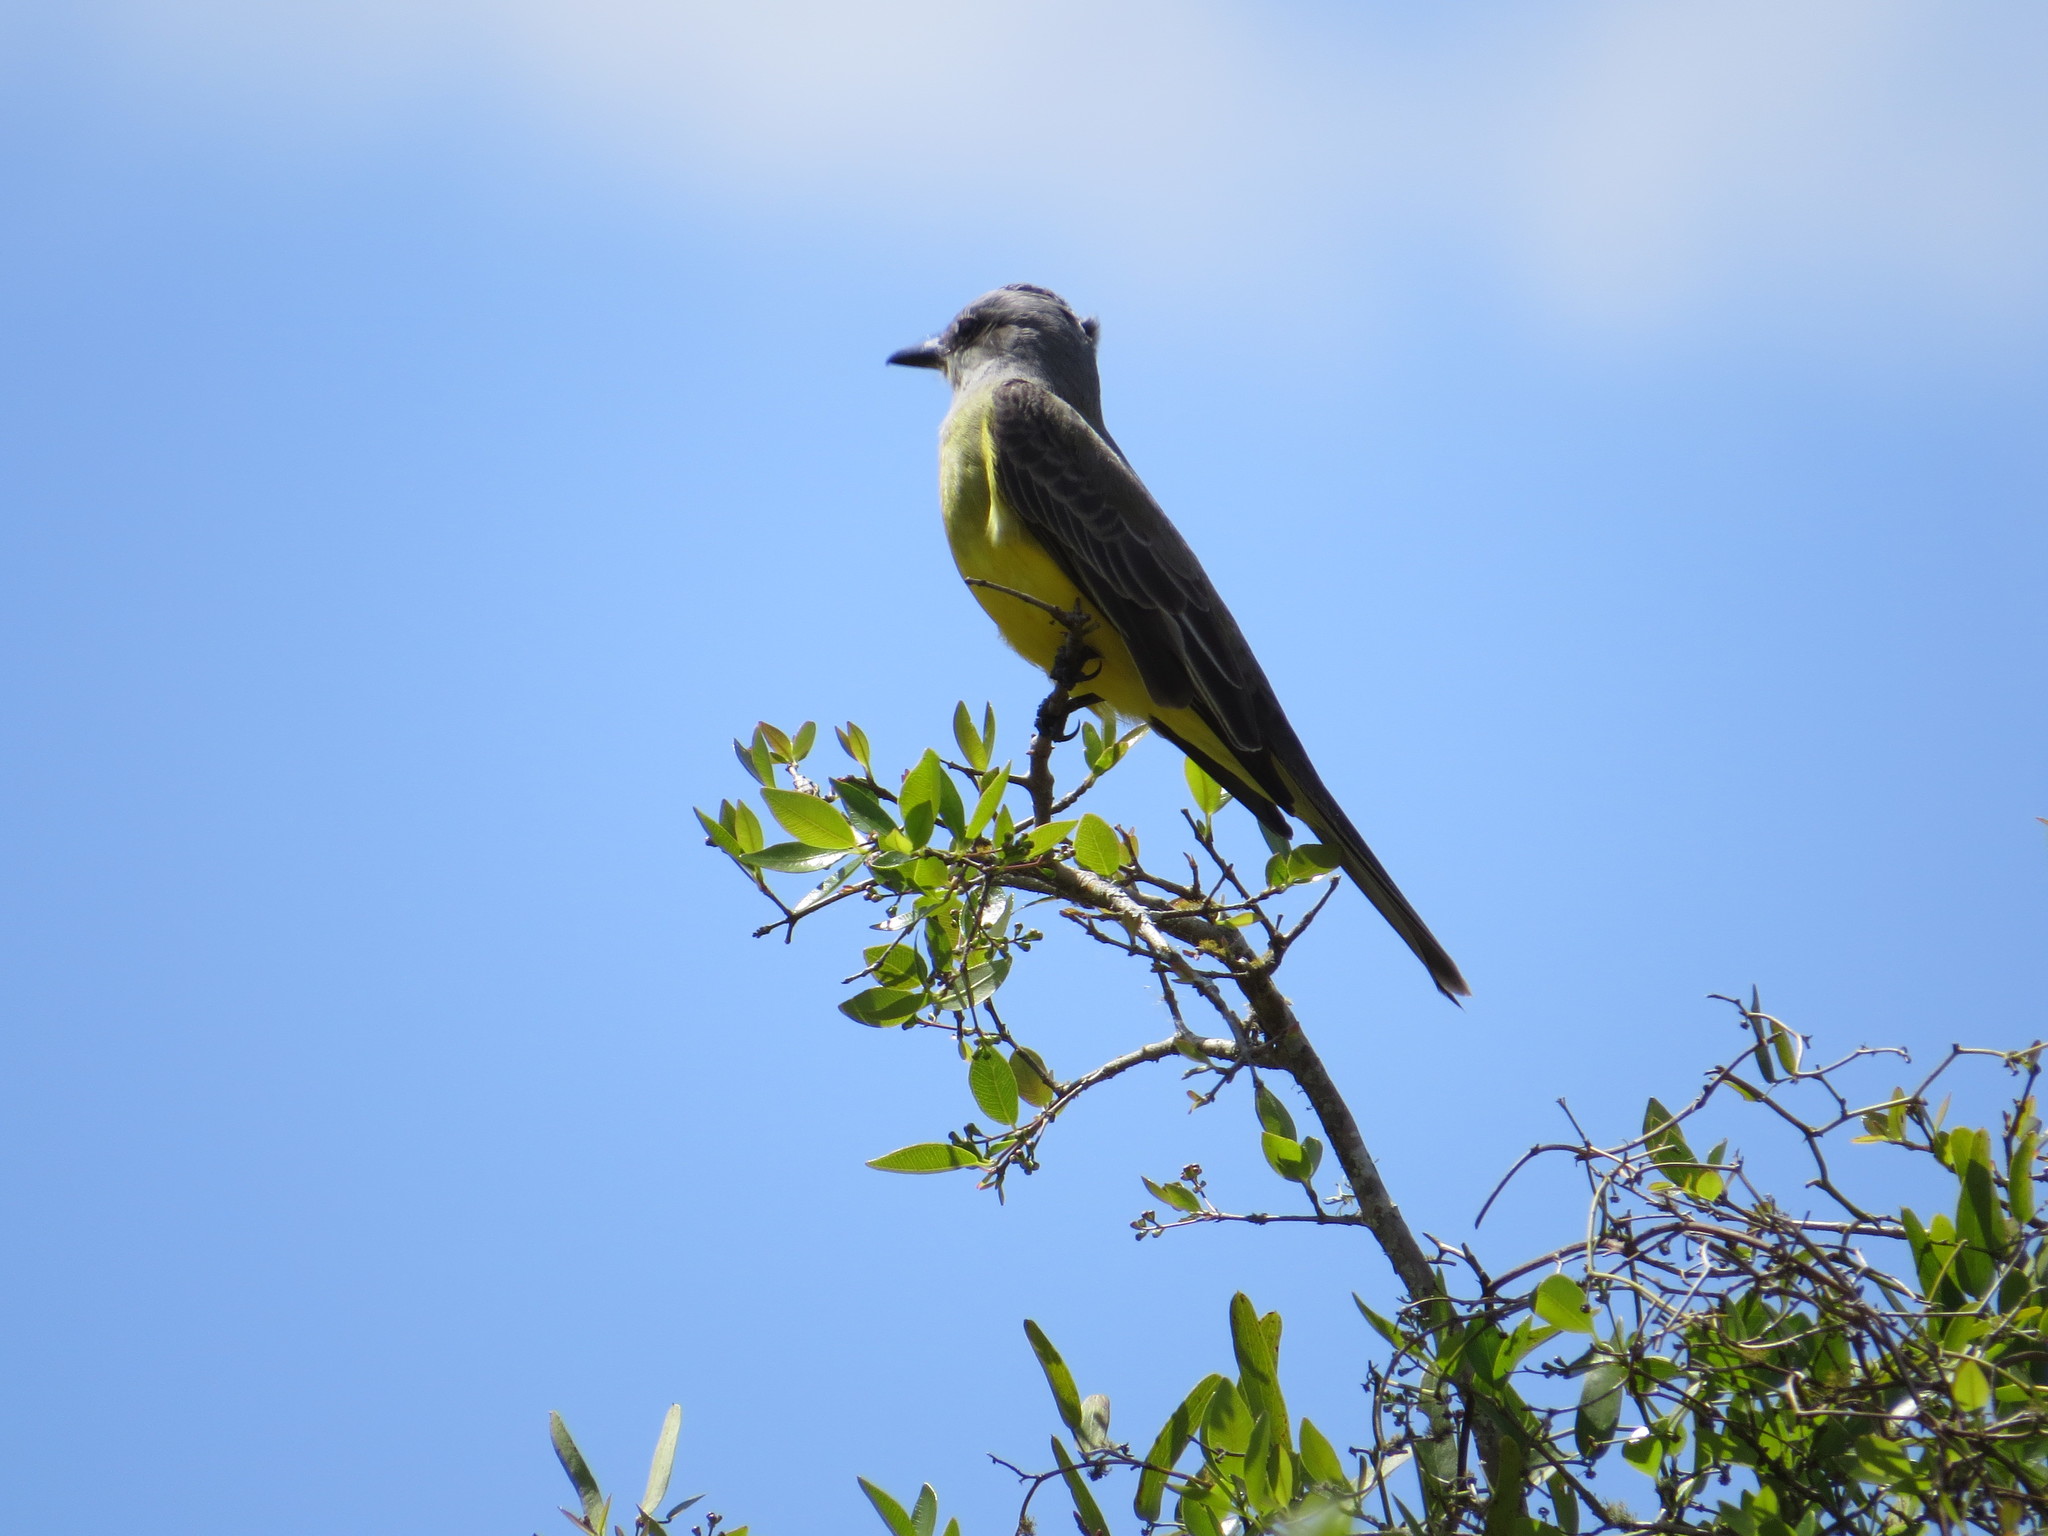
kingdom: Animalia
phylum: Chordata
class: Aves
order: Passeriformes
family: Tyrannidae
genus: Tyrannus
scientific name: Tyrannus melancholicus
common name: Tropical kingbird
